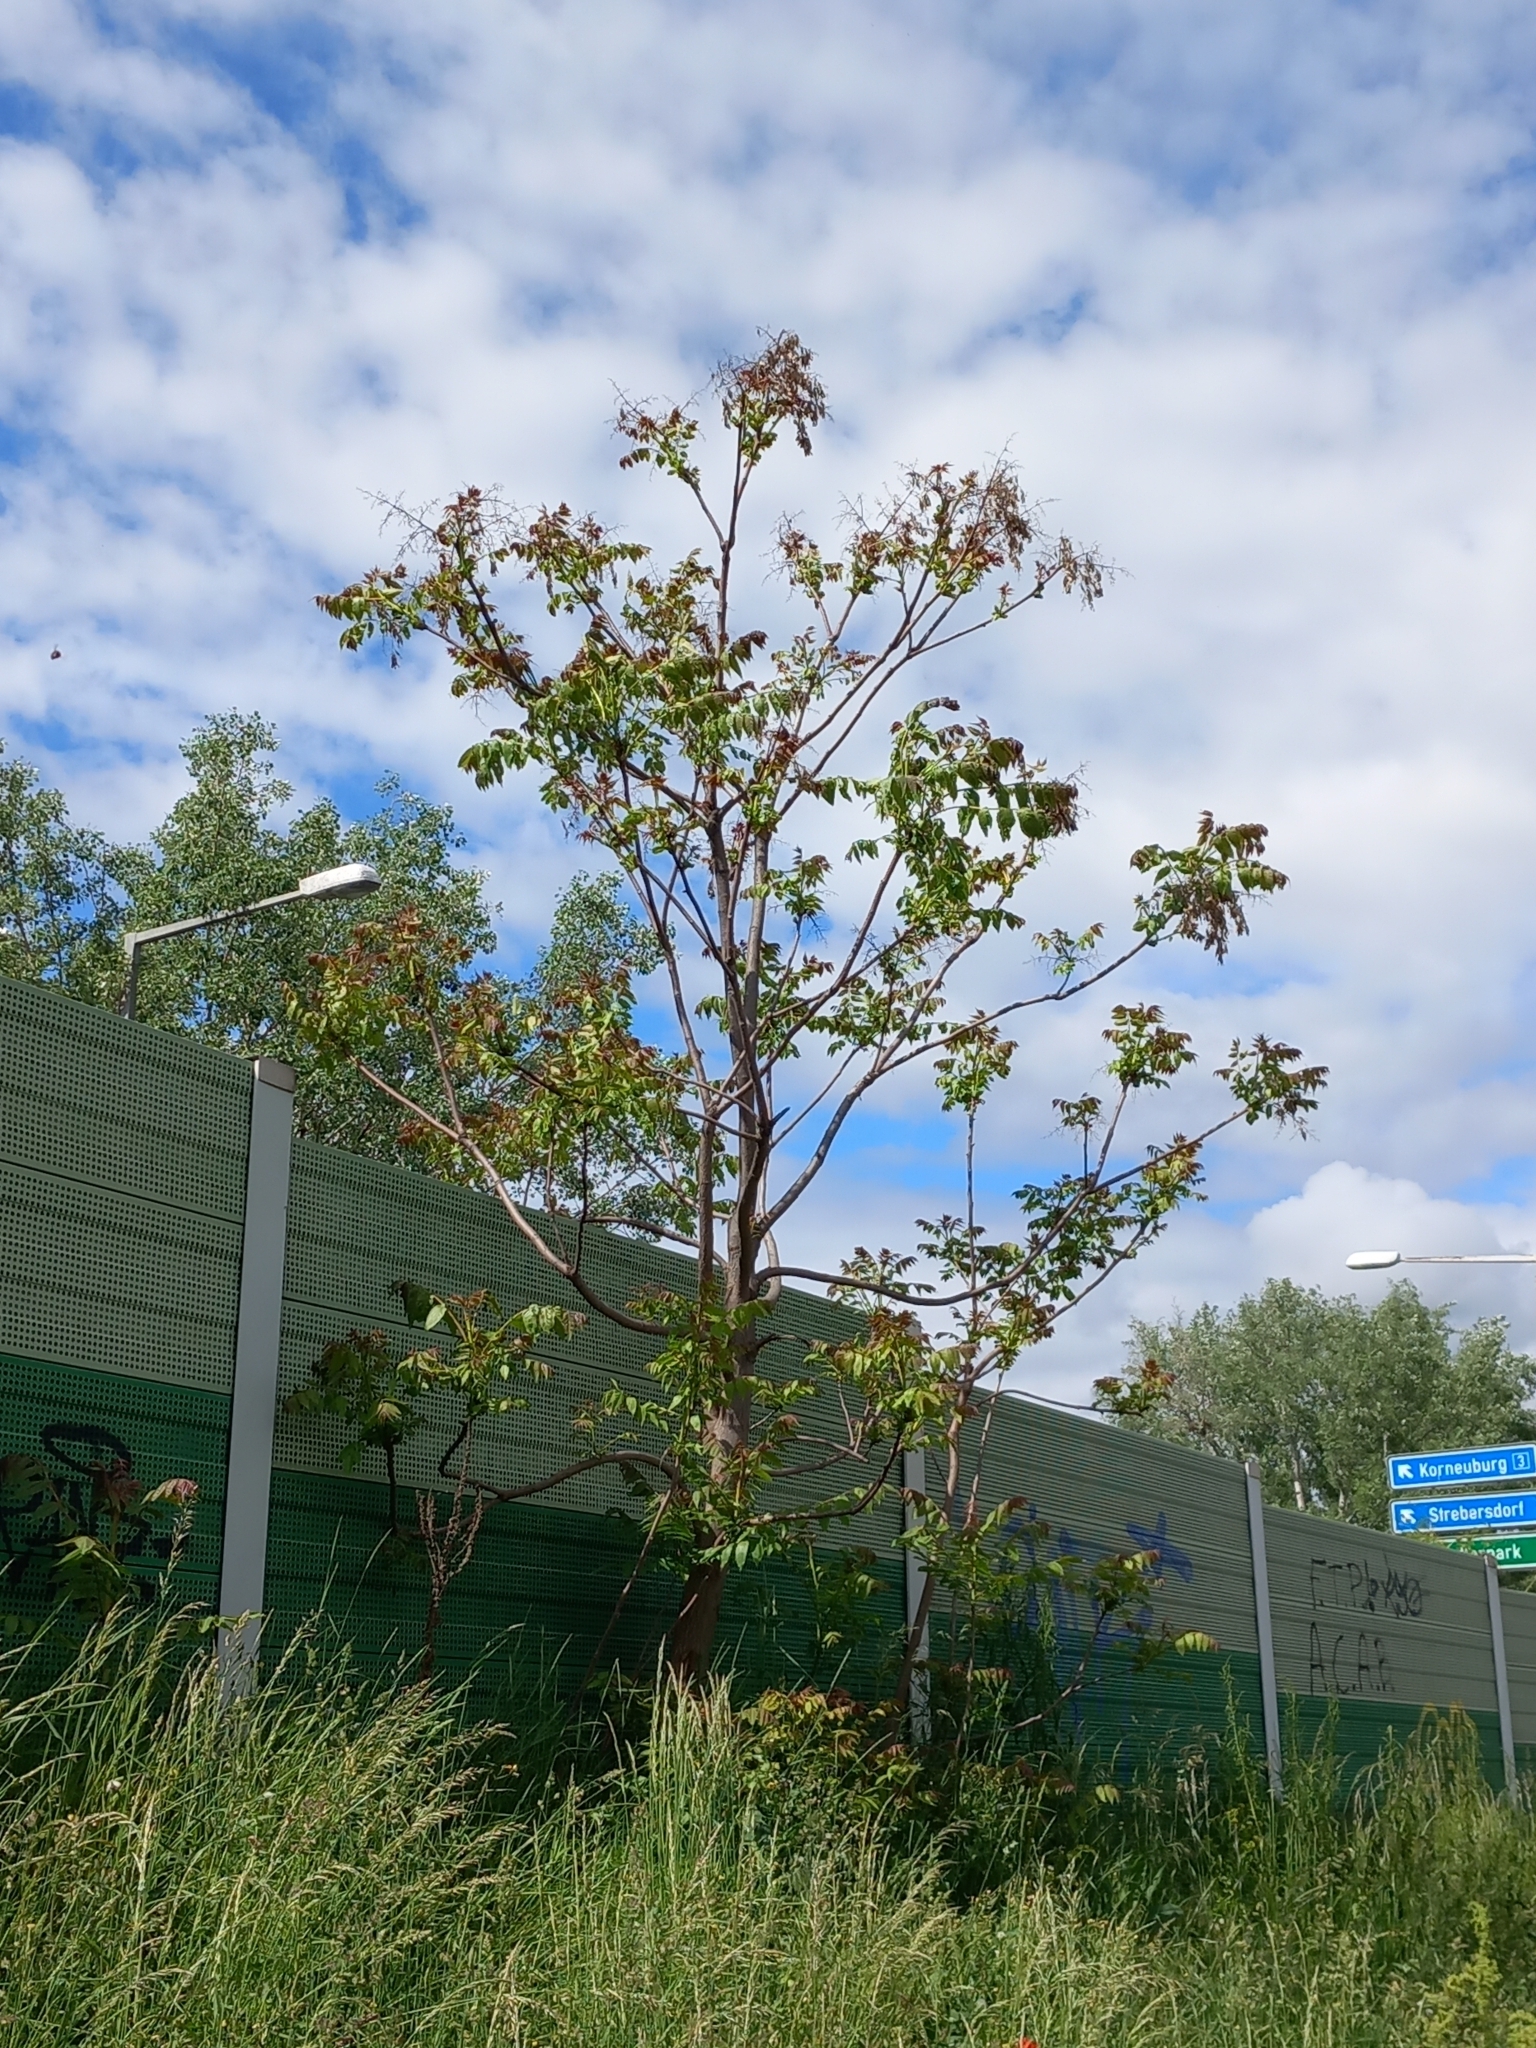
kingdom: Plantae
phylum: Tracheophyta
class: Magnoliopsida
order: Sapindales
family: Simaroubaceae
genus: Ailanthus
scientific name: Ailanthus altissima
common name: Tree-of-heaven
